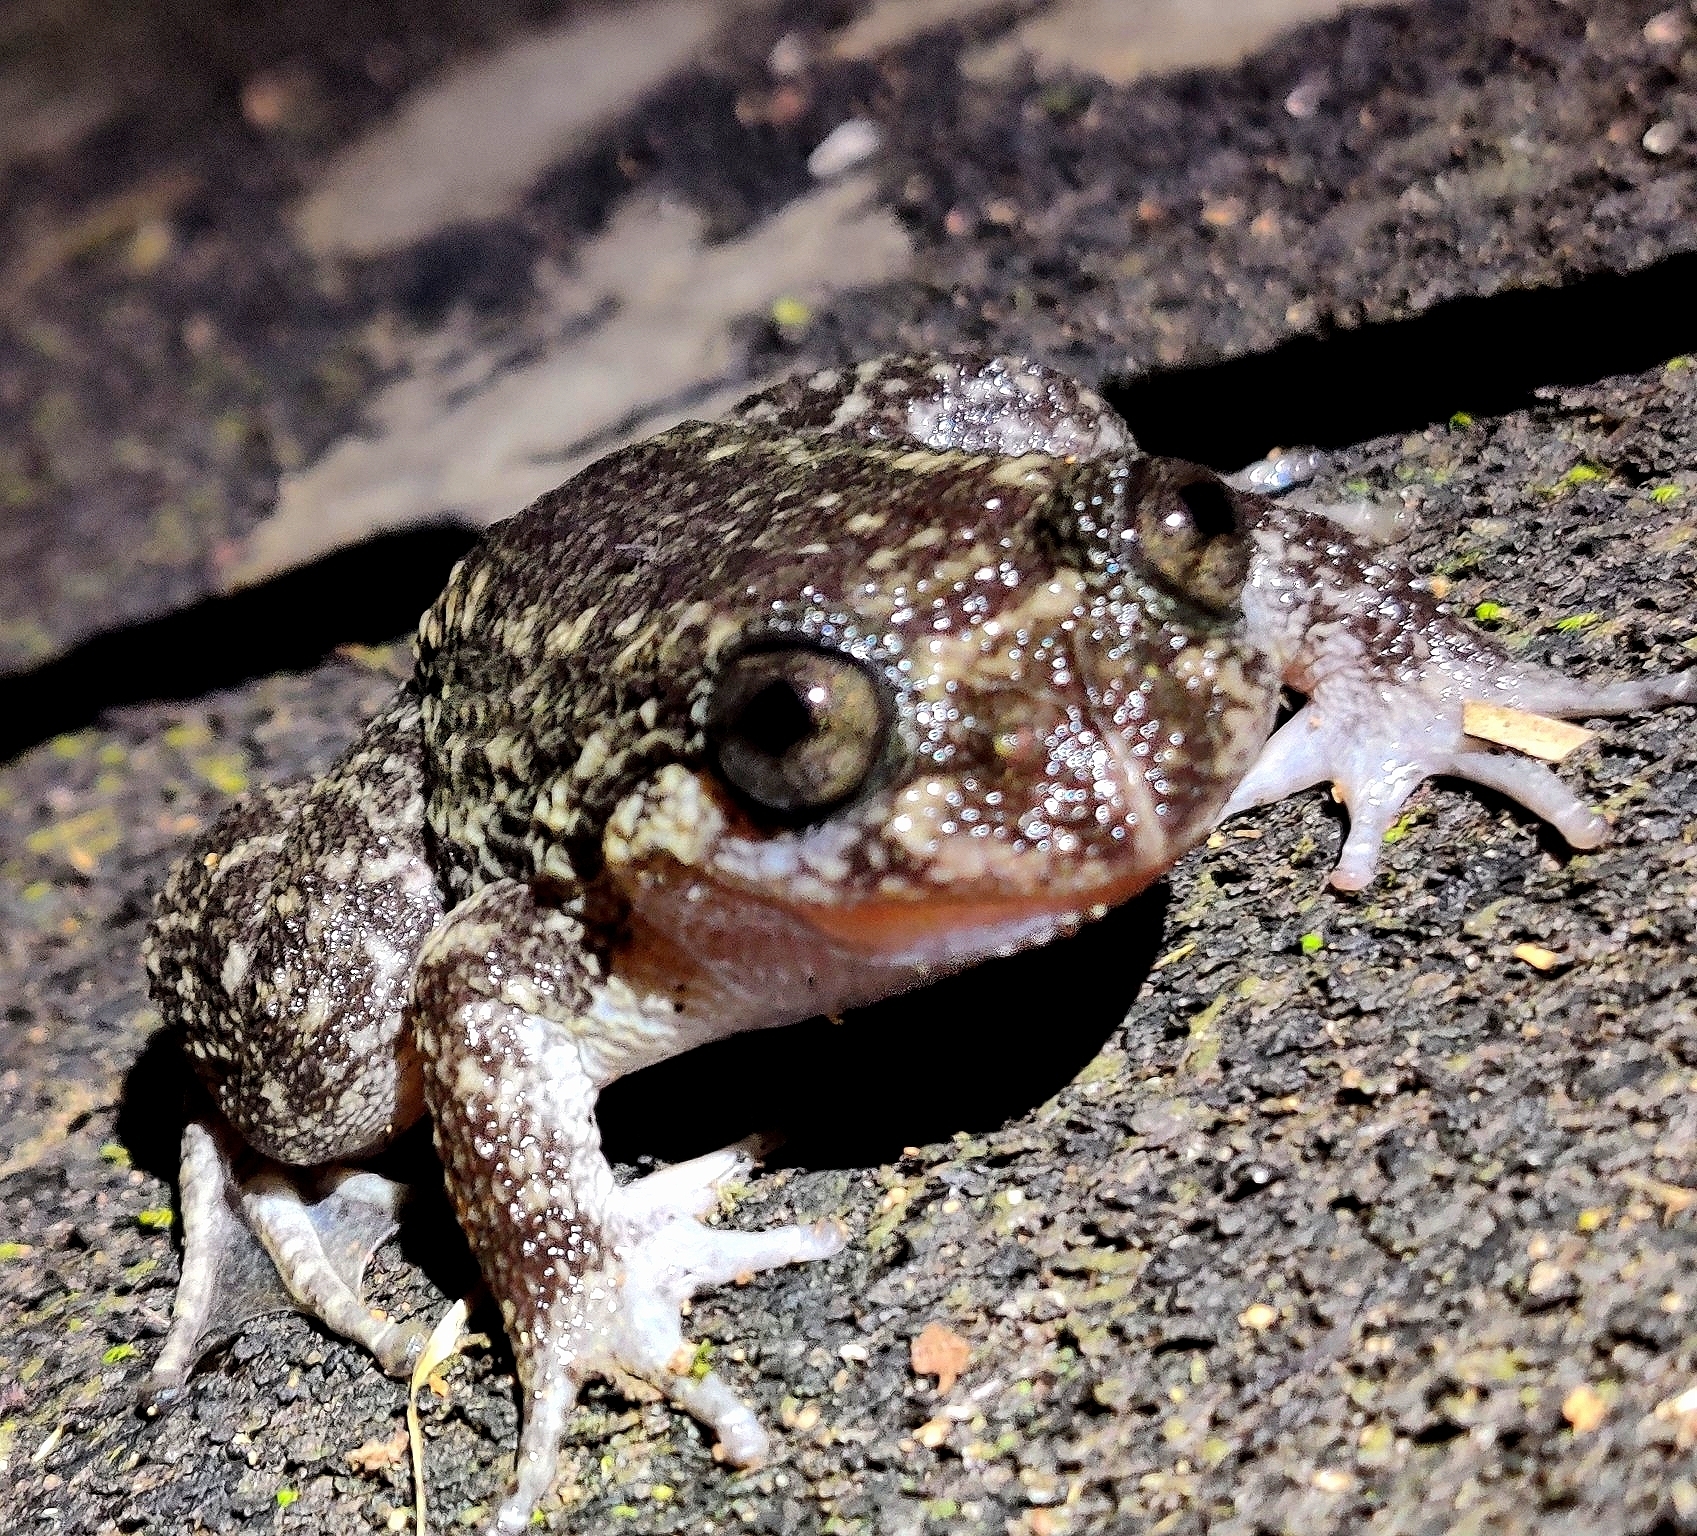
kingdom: Animalia
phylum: Chordata
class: Amphibia
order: Anura
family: Nyctibatrachidae
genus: Nyctibatrachus
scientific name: Nyctibatrachus grandis
